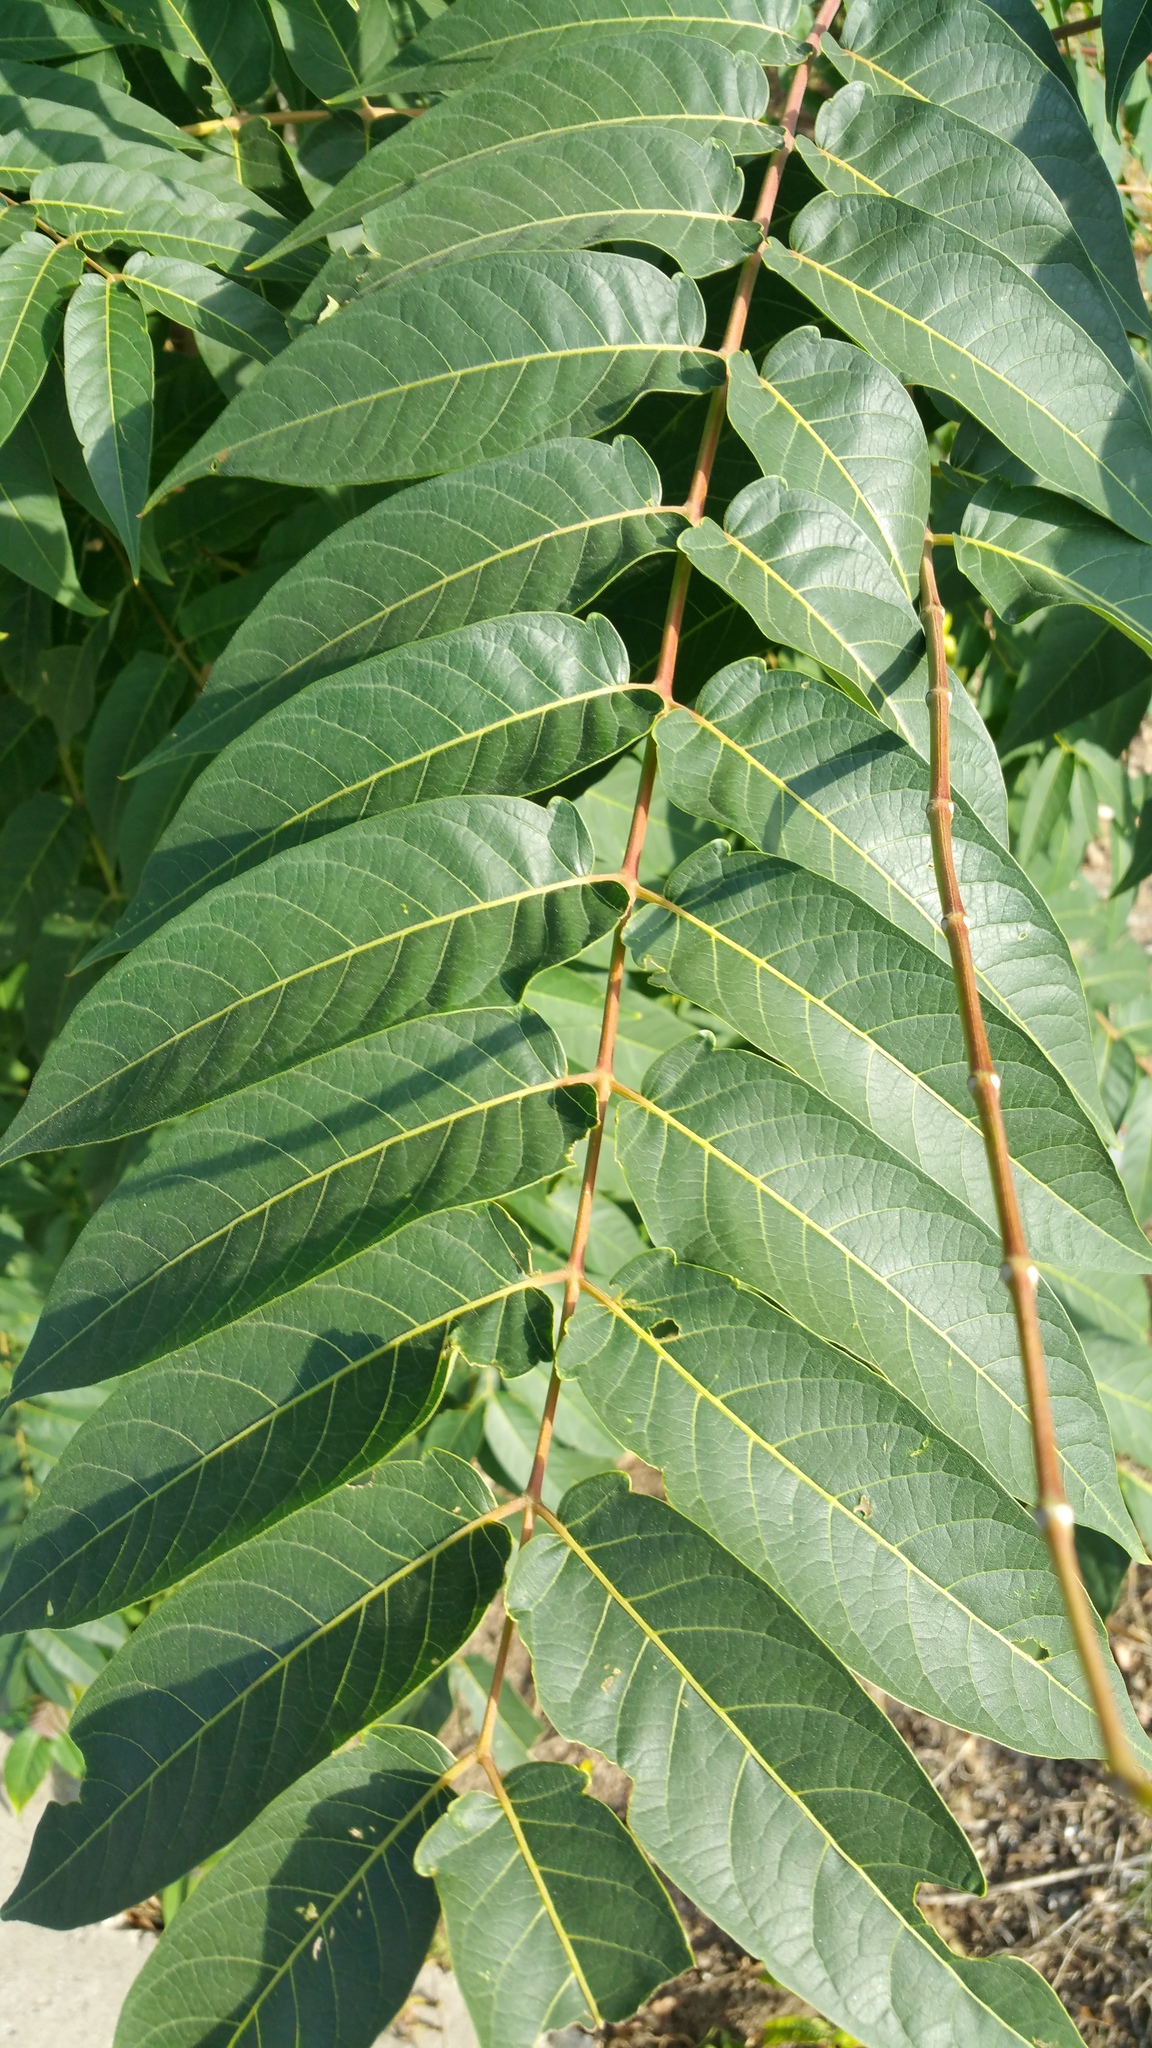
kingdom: Plantae
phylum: Tracheophyta
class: Magnoliopsida
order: Sapindales
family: Simaroubaceae
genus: Ailanthus
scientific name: Ailanthus altissima
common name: Tree-of-heaven
